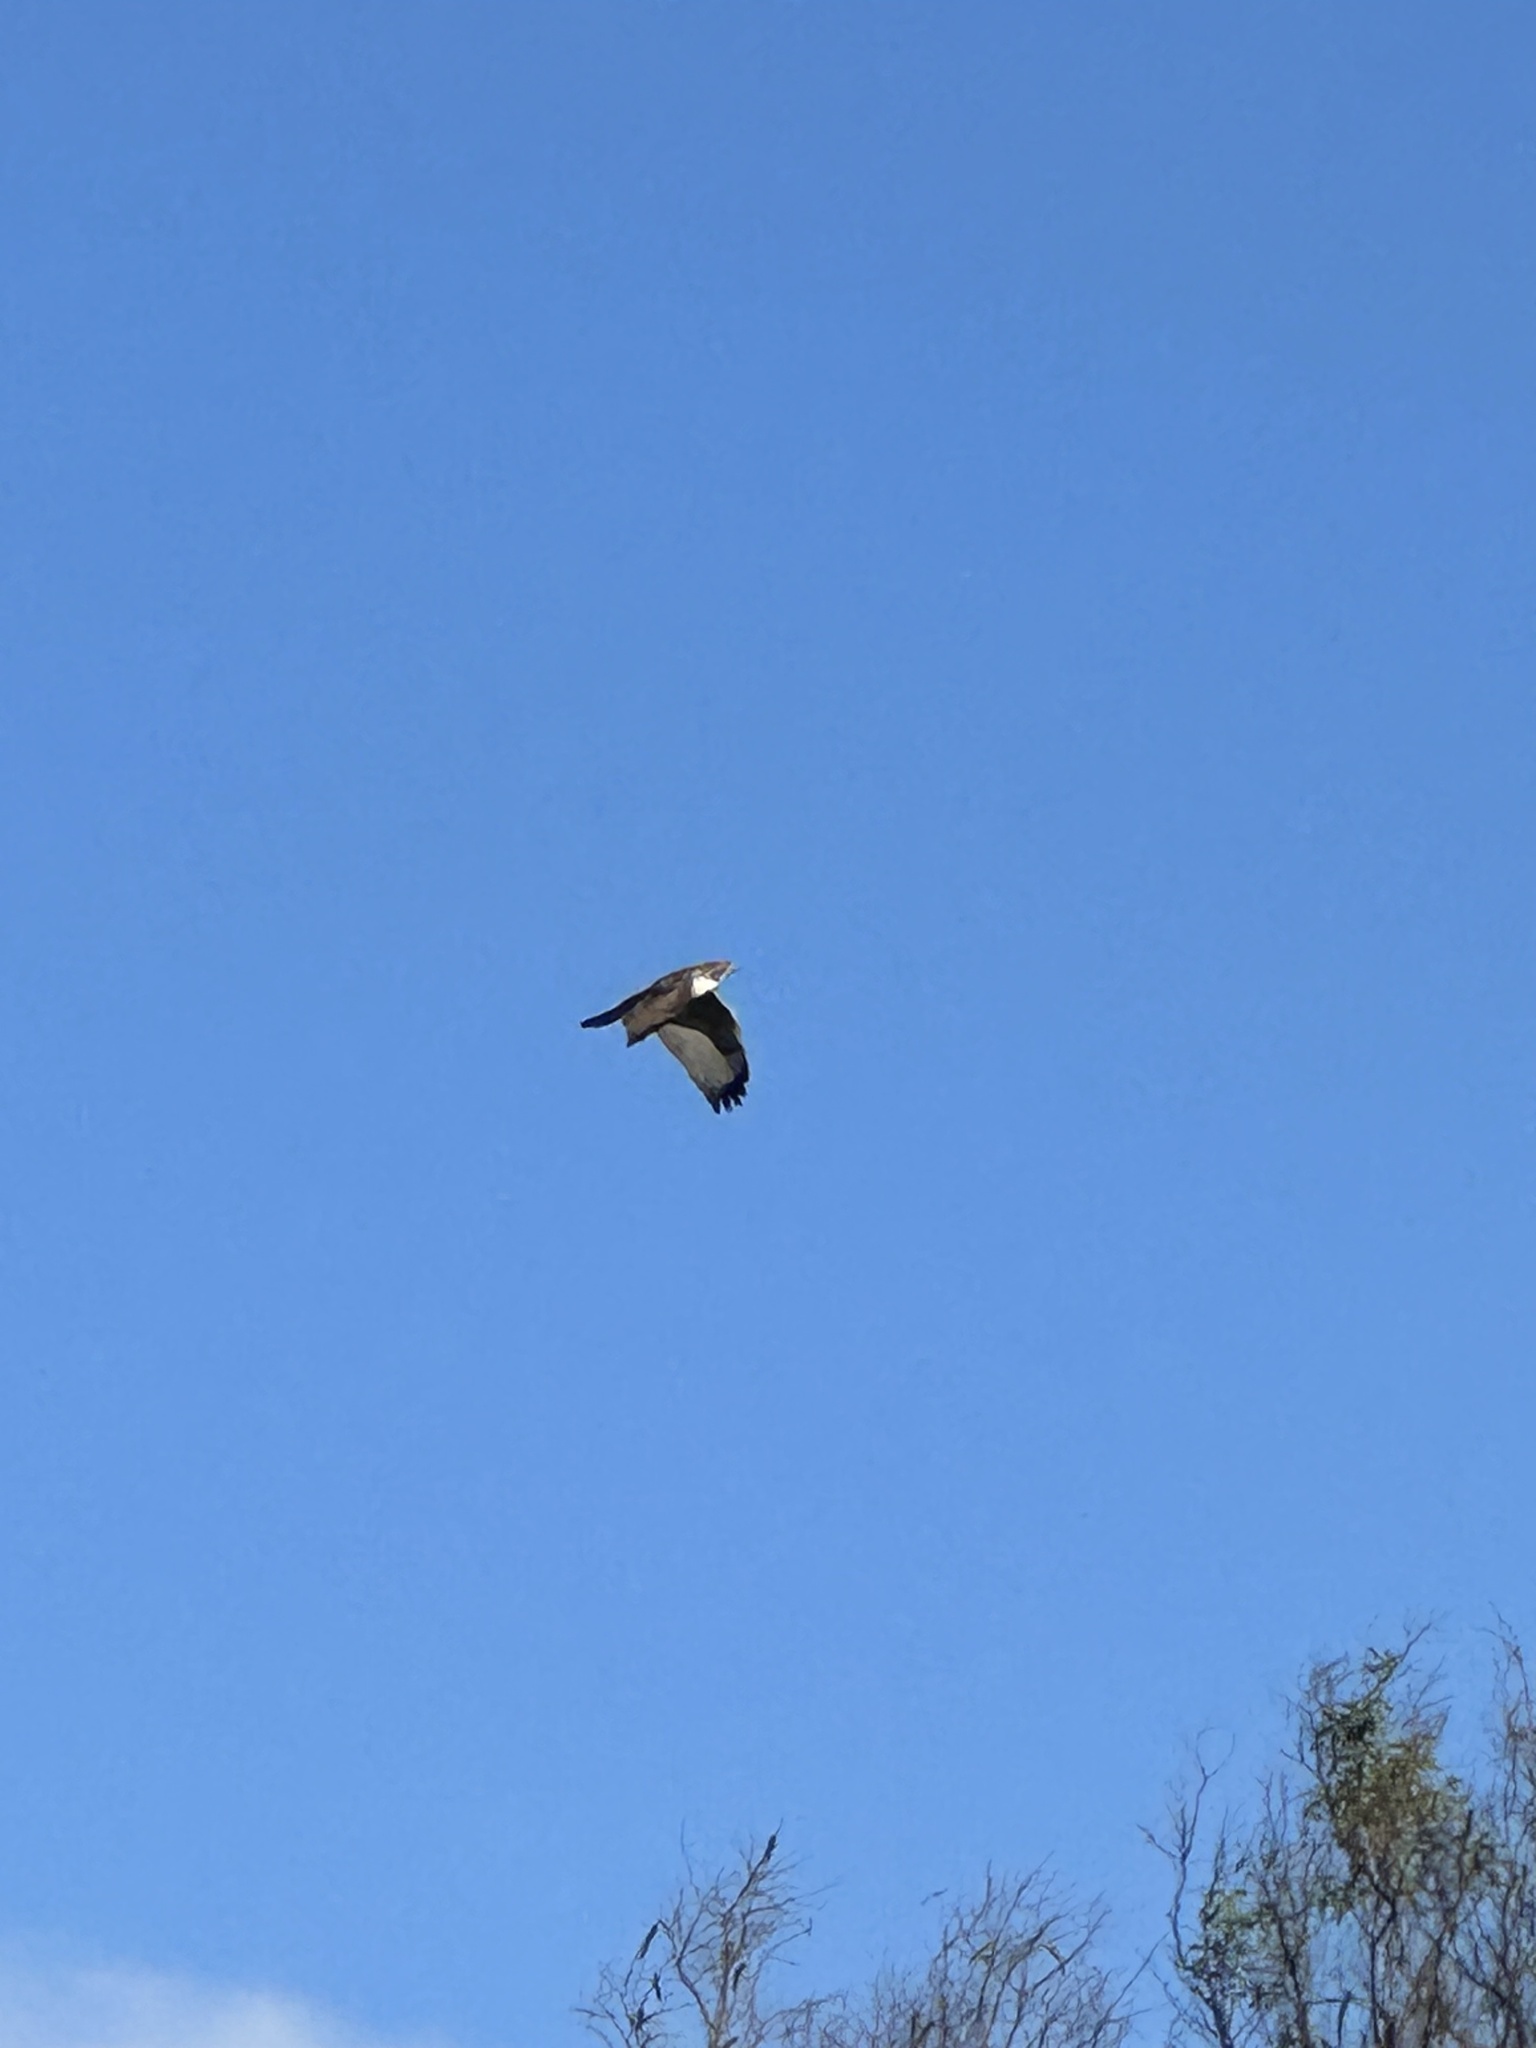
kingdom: Animalia
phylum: Chordata
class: Aves
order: Accipitriformes
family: Accipitridae
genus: Buteo
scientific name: Buteo jamaicensis
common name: Red-tailed hawk
